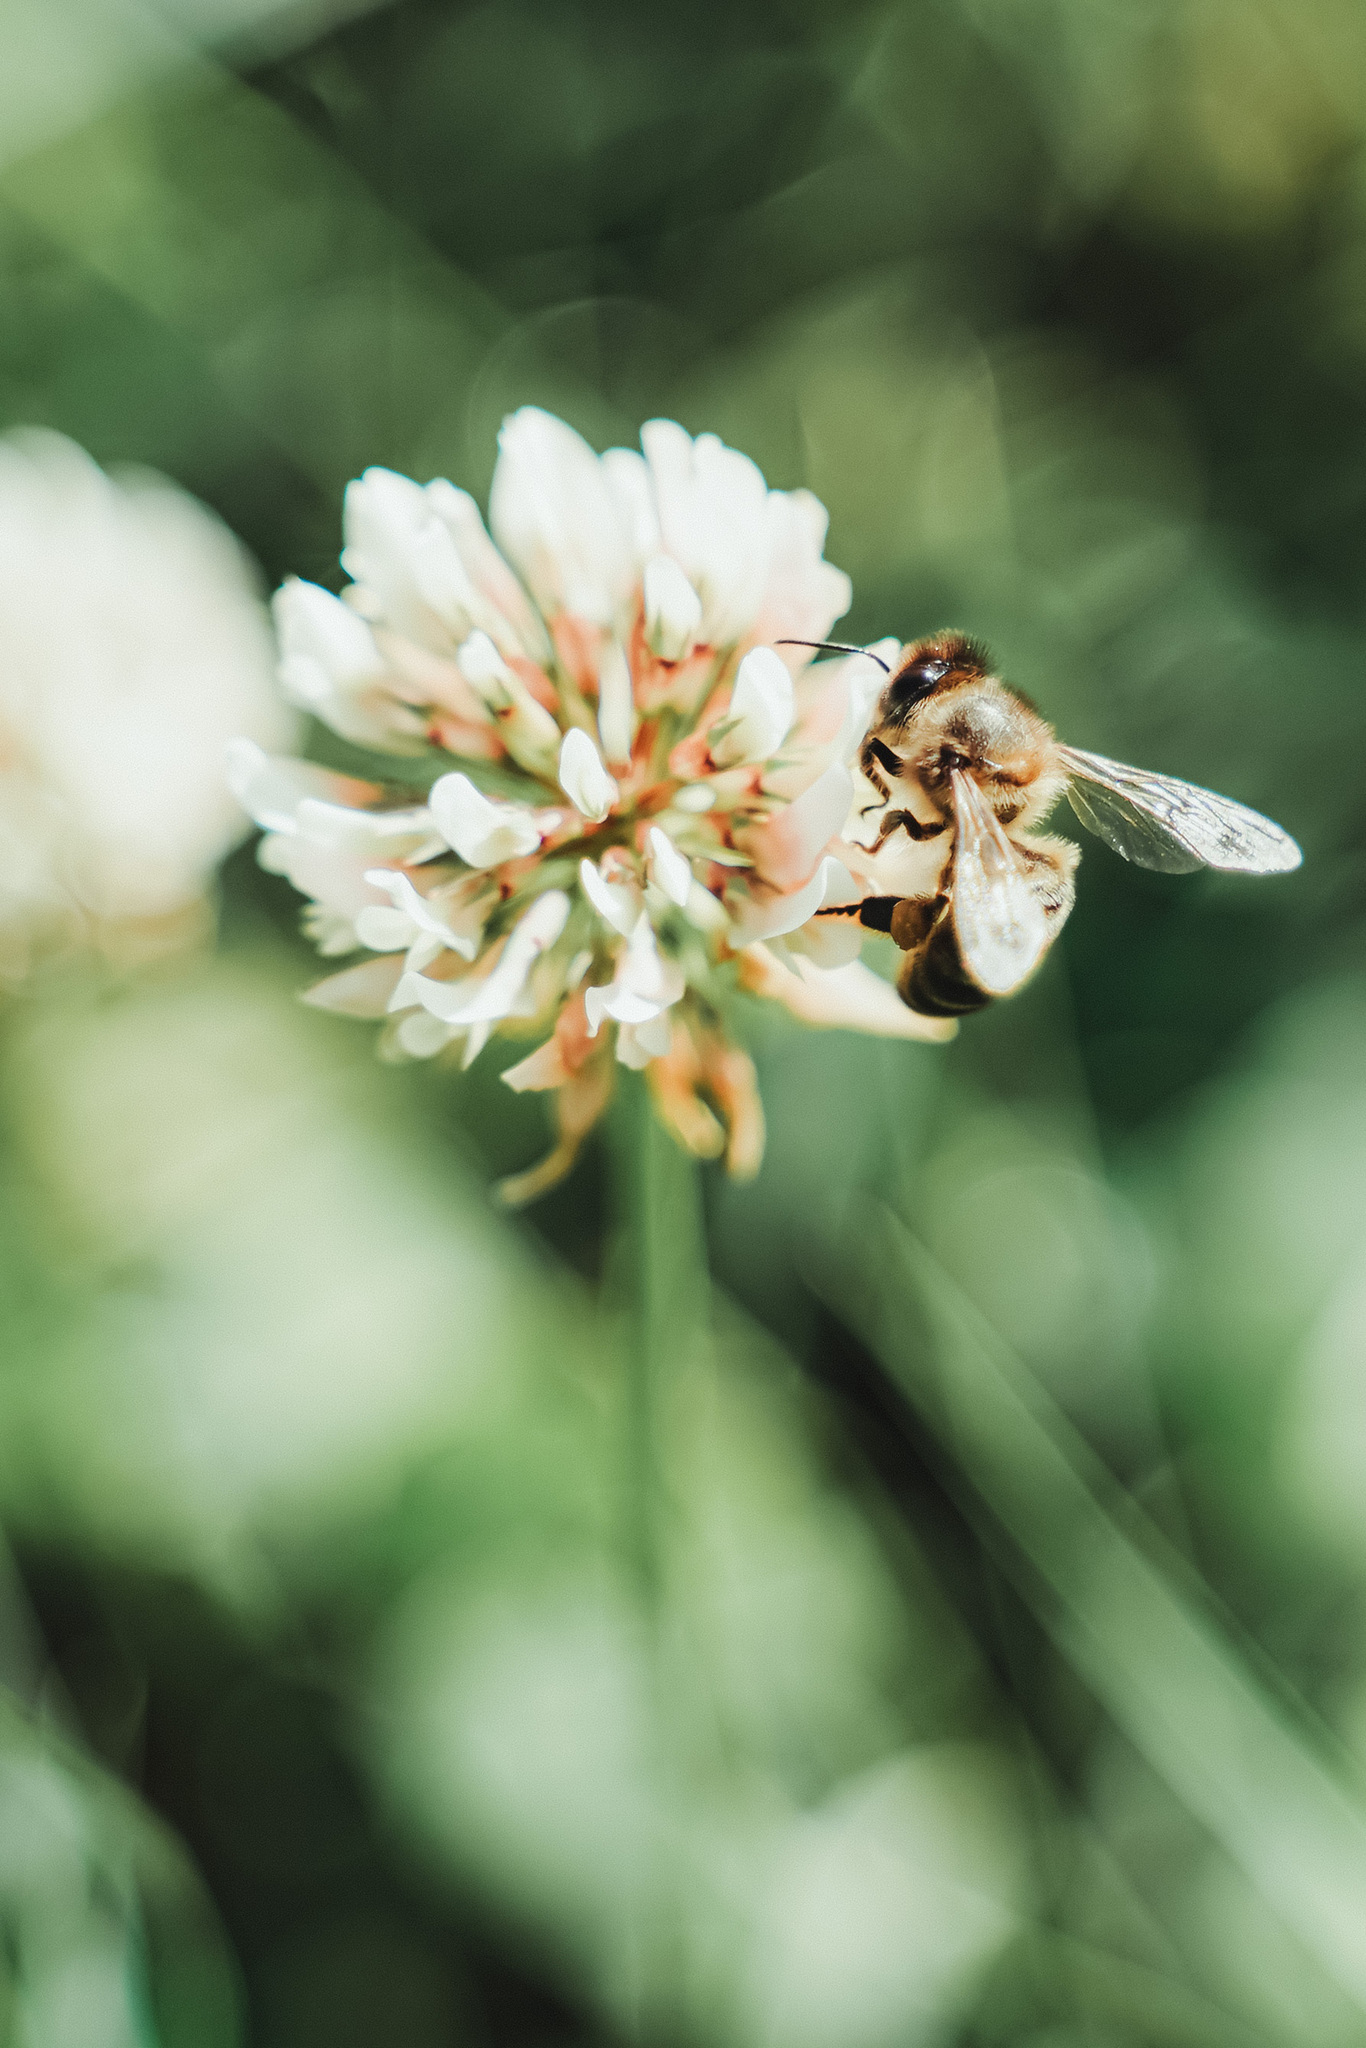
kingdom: Animalia
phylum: Arthropoda
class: Insecta
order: Hymenoptera
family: Apidae
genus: Apis
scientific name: Apis mellifera
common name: Honey bee
